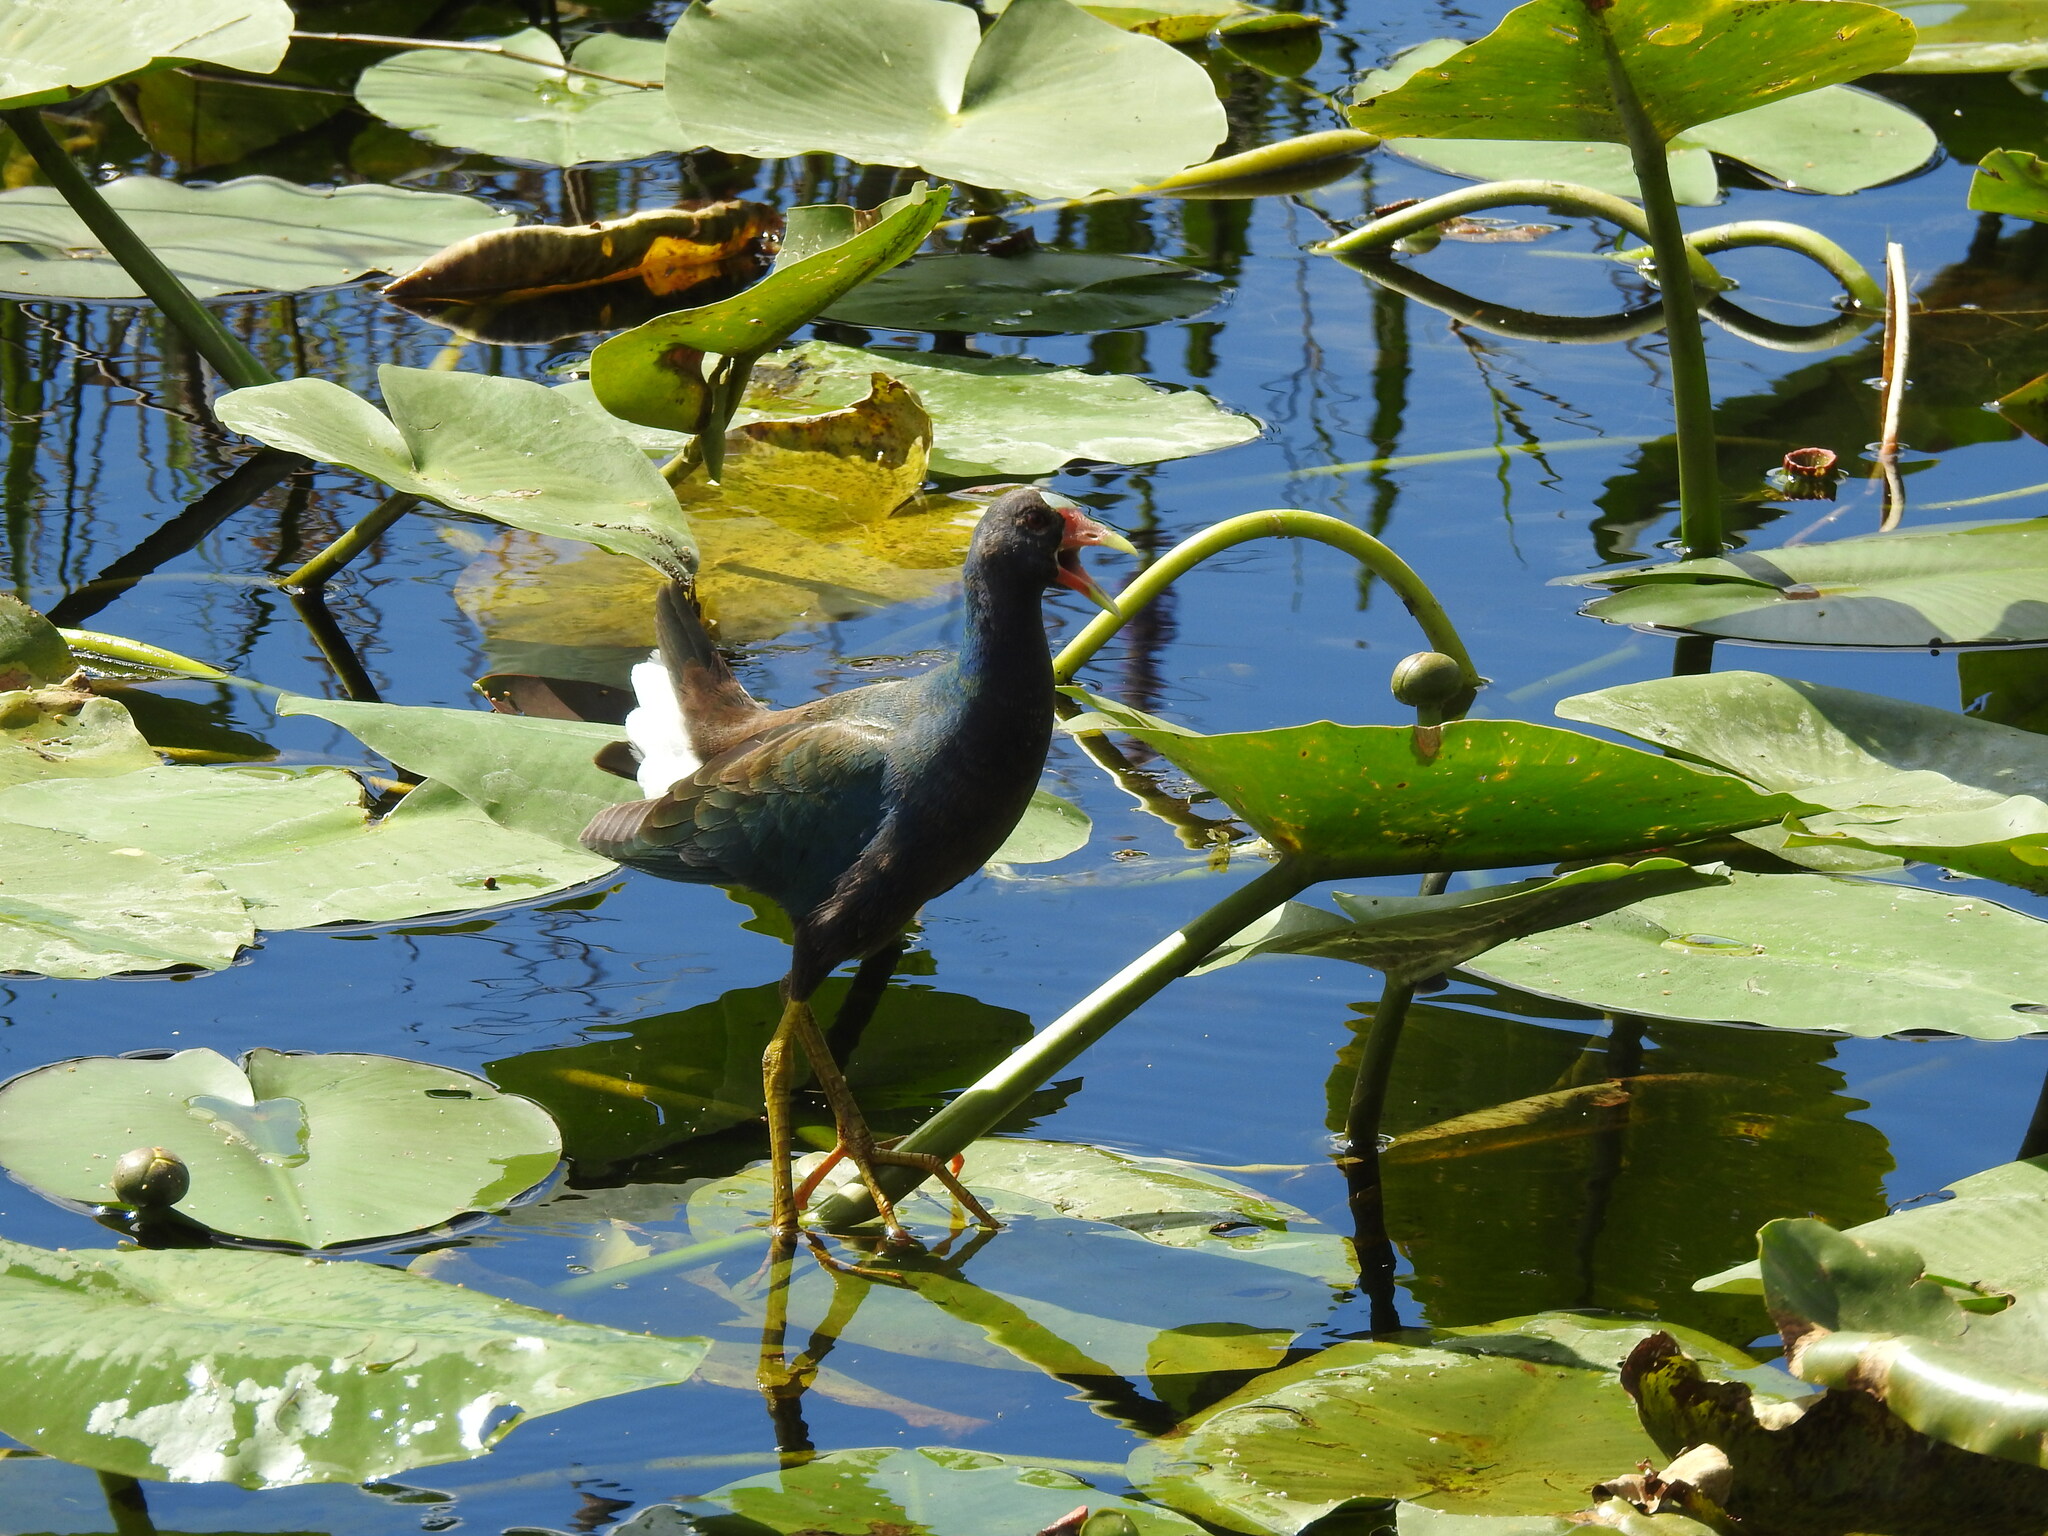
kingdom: Animalia
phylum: Chordata
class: Aves
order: Gruiformes
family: Rallidae
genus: Porphyrio
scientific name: Porphyrio martinica
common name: Purple gallinule
